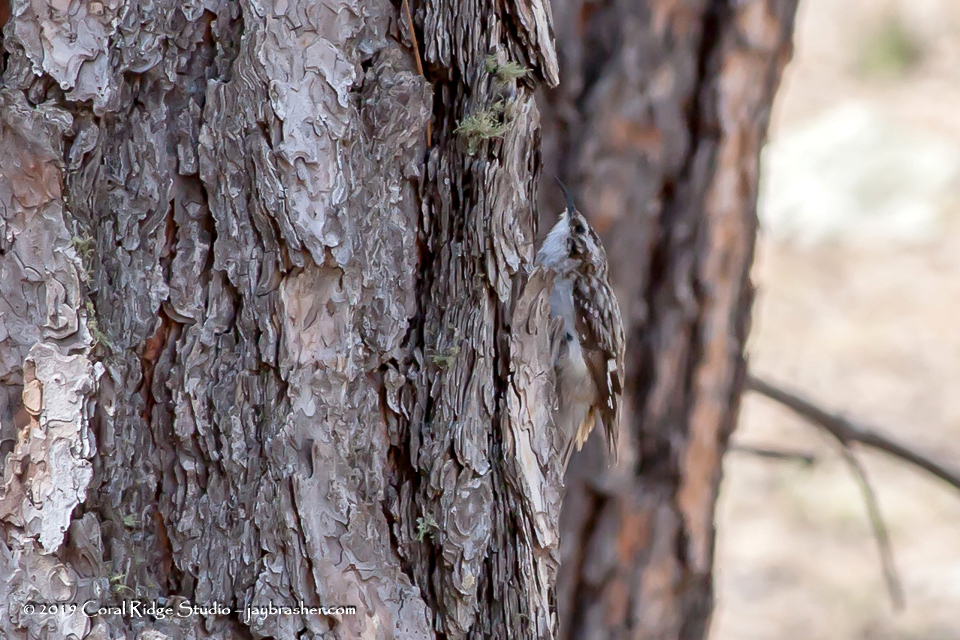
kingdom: Animalia
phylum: Chordata
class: Aves
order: Passeriformes
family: Certhiidae
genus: Certhia
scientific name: Certhia americana
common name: Brown creeper
